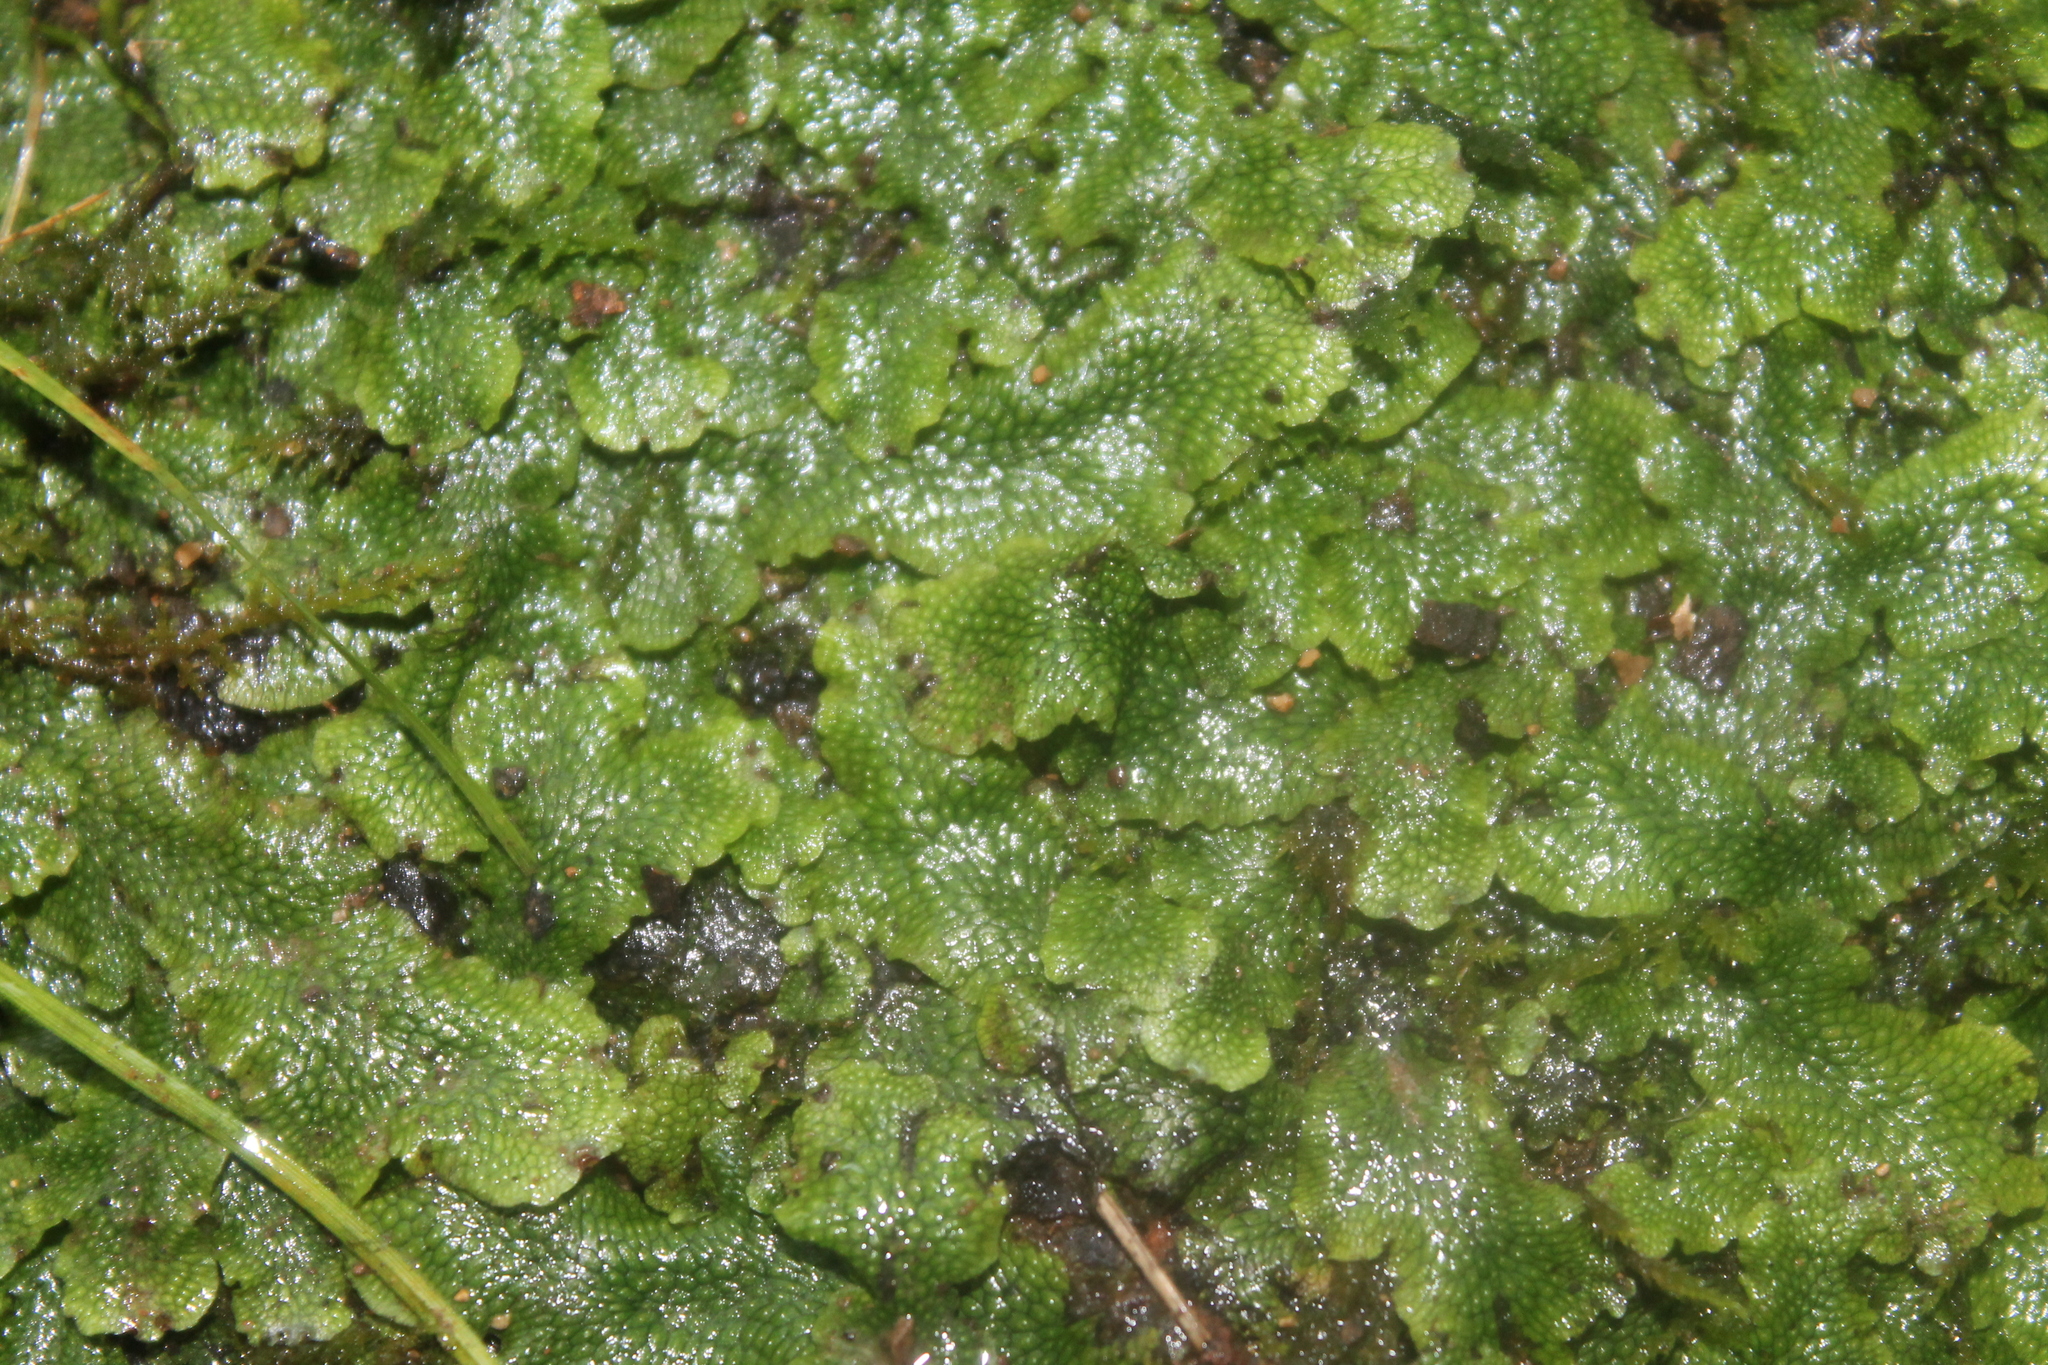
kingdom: Plantae
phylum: Marchantiophyta
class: Marchantiopsida
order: Marchantiales
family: Conocephalaceae
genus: Conocephalum
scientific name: Conocephalum salebrosum
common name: Cat-tongue liverwort
